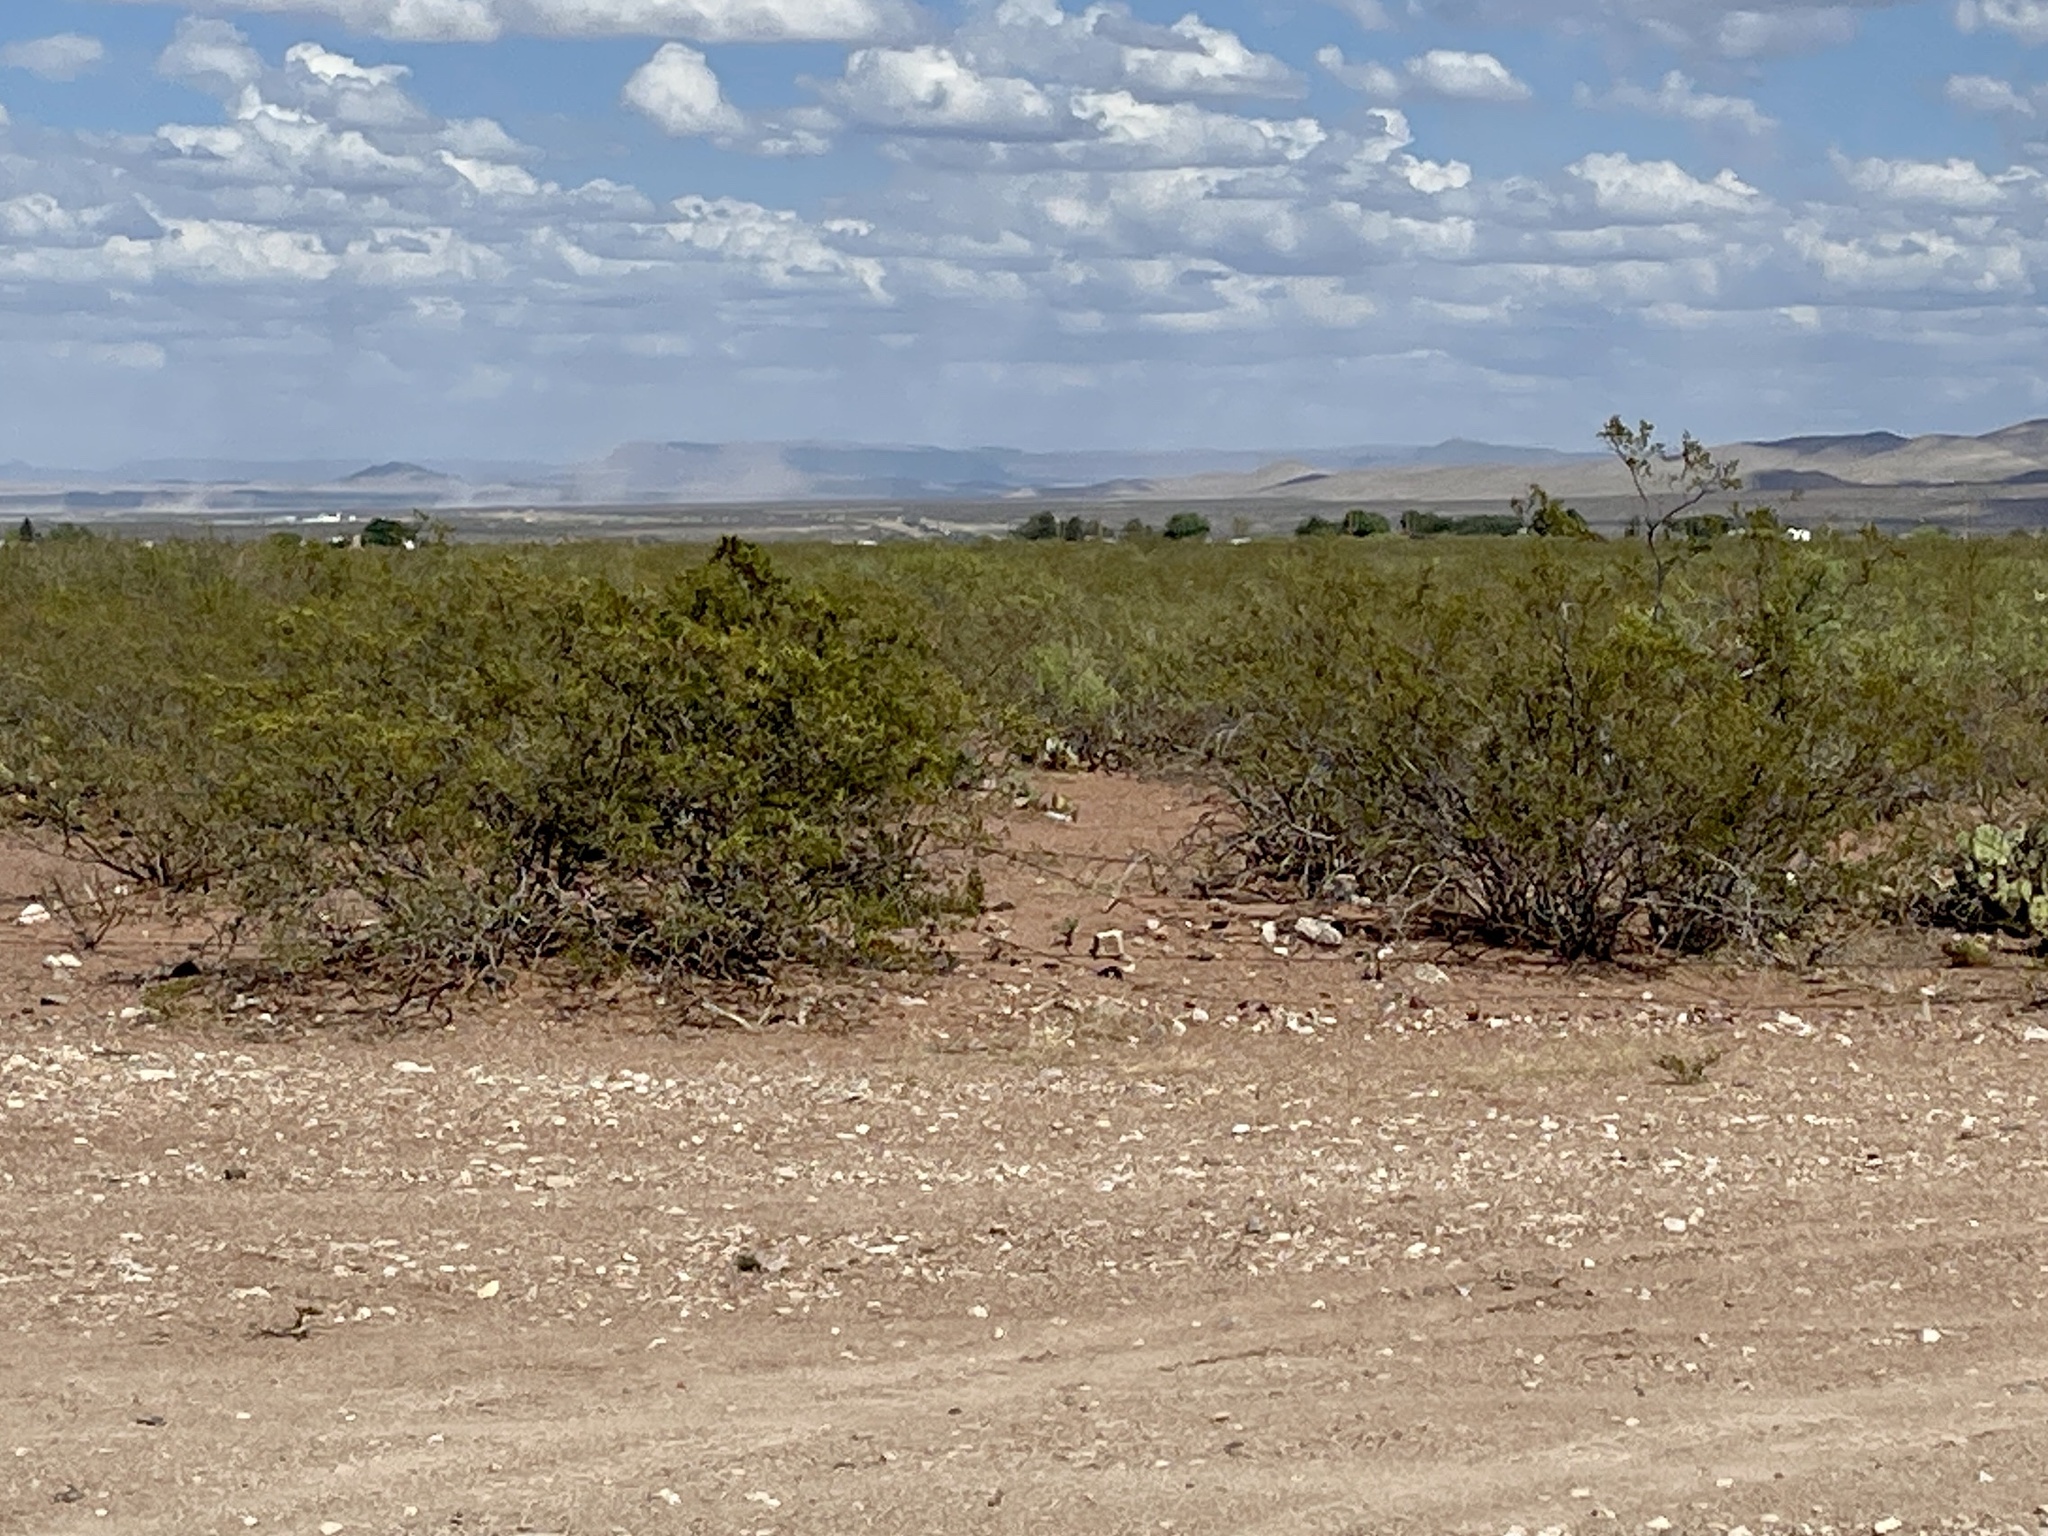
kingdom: Plantae
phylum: Tracheophyta
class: Magnoliopsida
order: Zygophyllales
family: Zygophyllaceae
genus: Larrea
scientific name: Larrea tridentata
